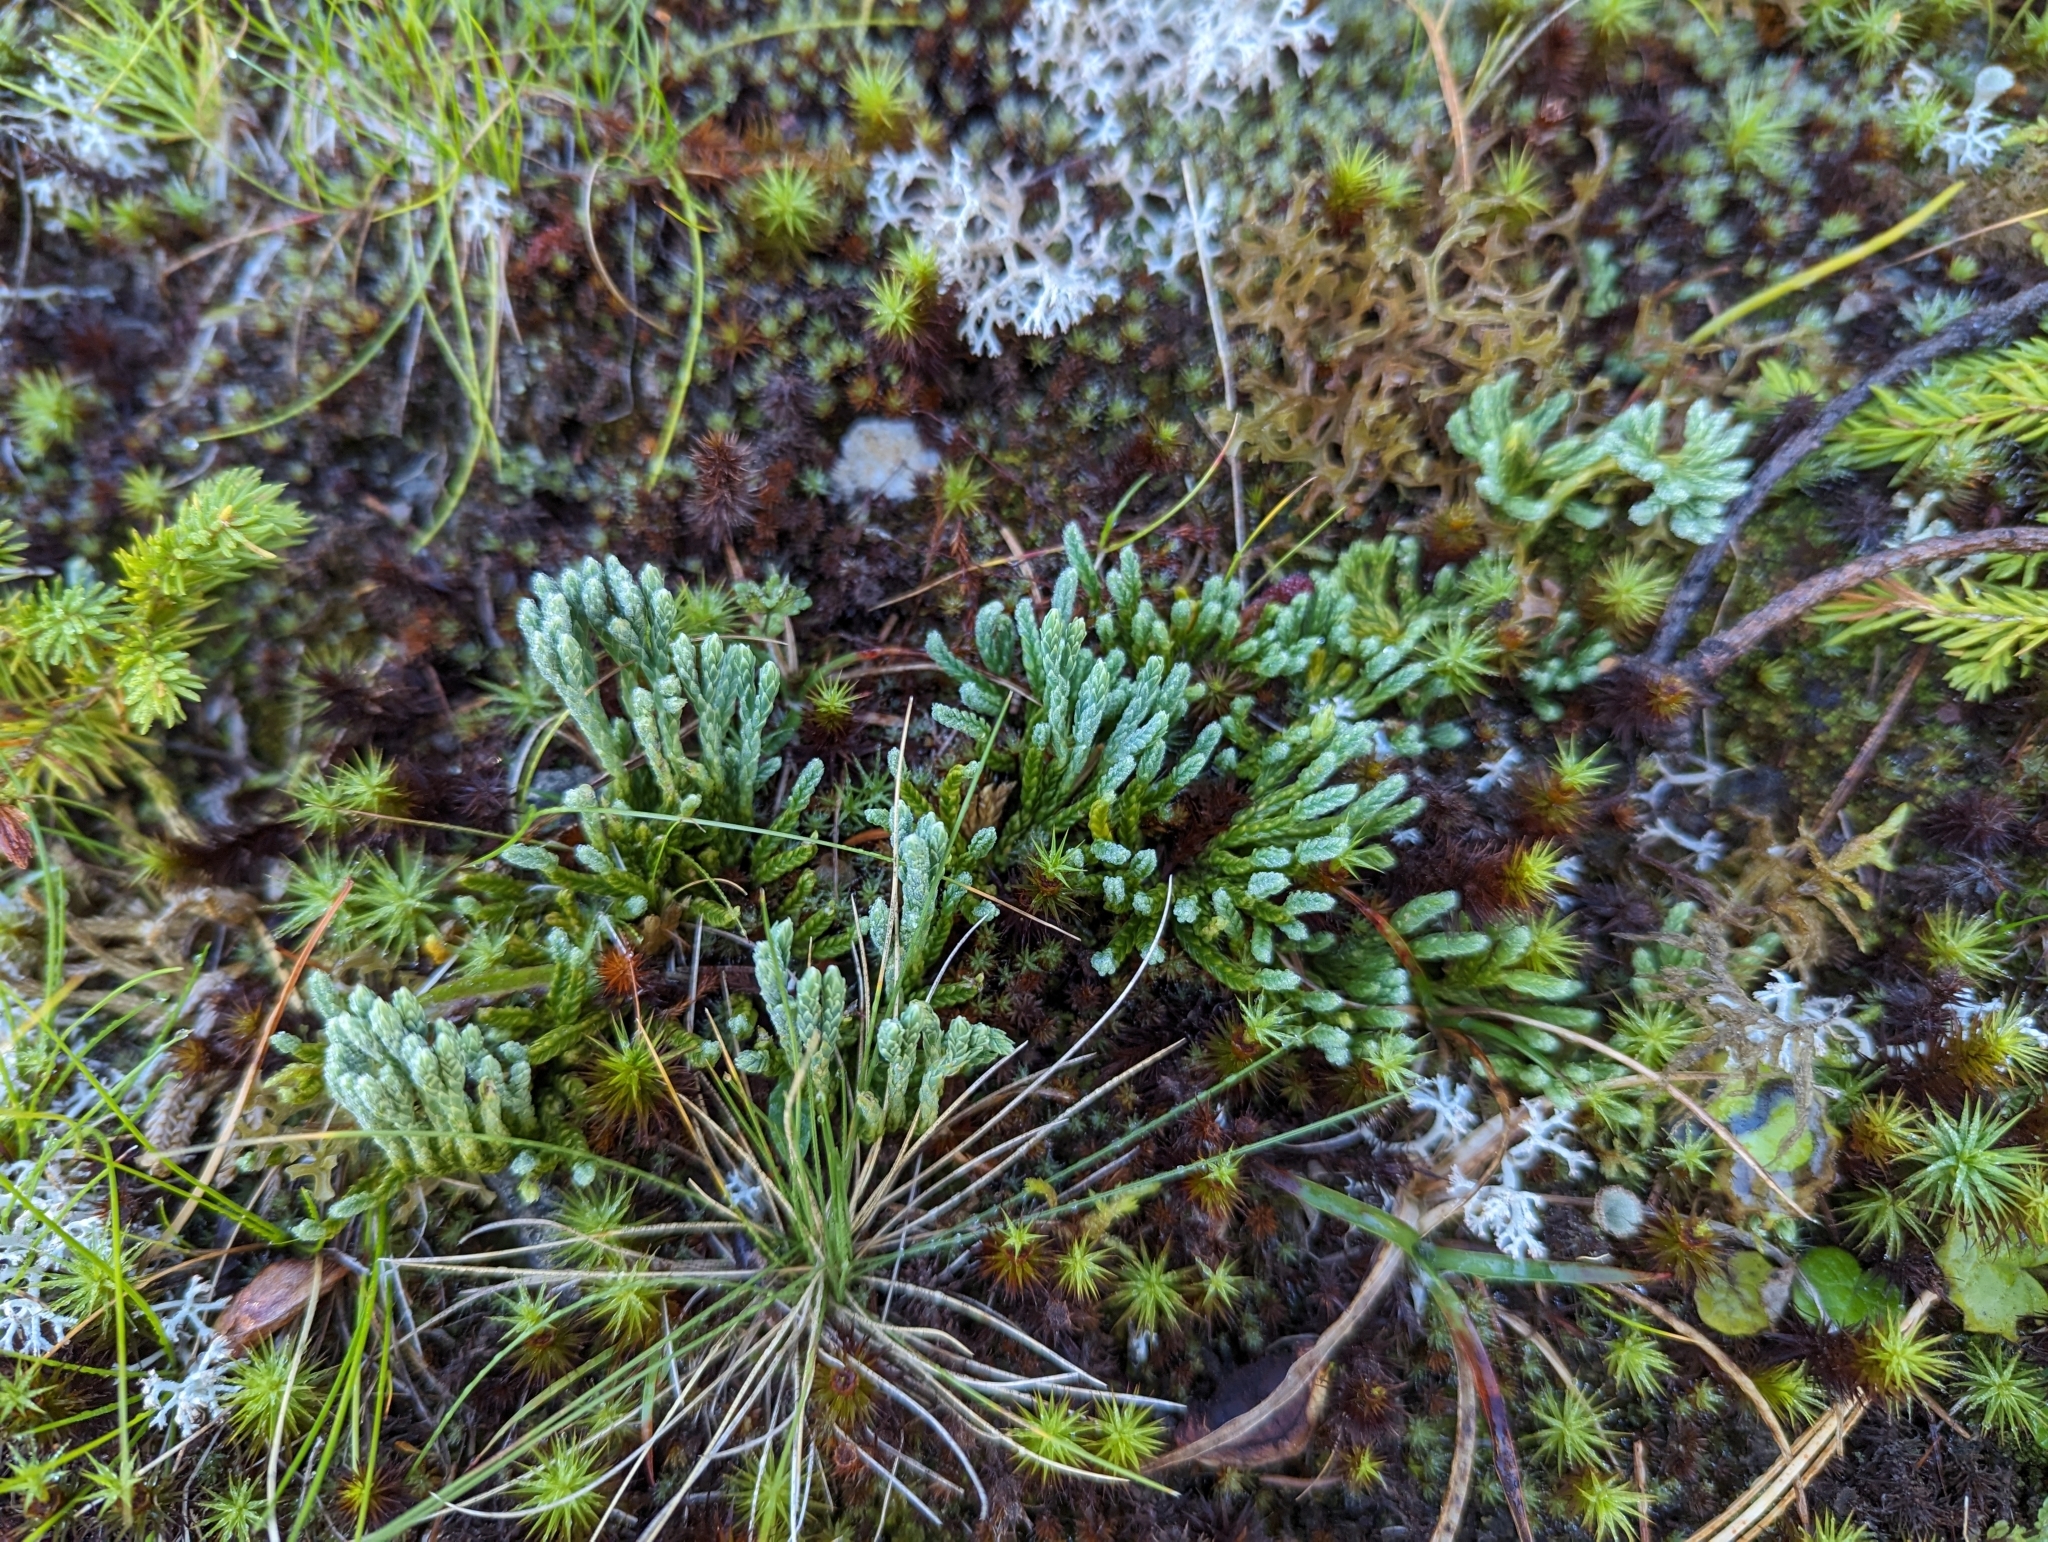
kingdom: Plantae
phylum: Tracheophyta
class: Lycopodiopsida
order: Lycopodiales
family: Lycopodiaceae
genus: Diphasiastrum
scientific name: Diphasiastrum alpinum
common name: Alpine clubmoss
